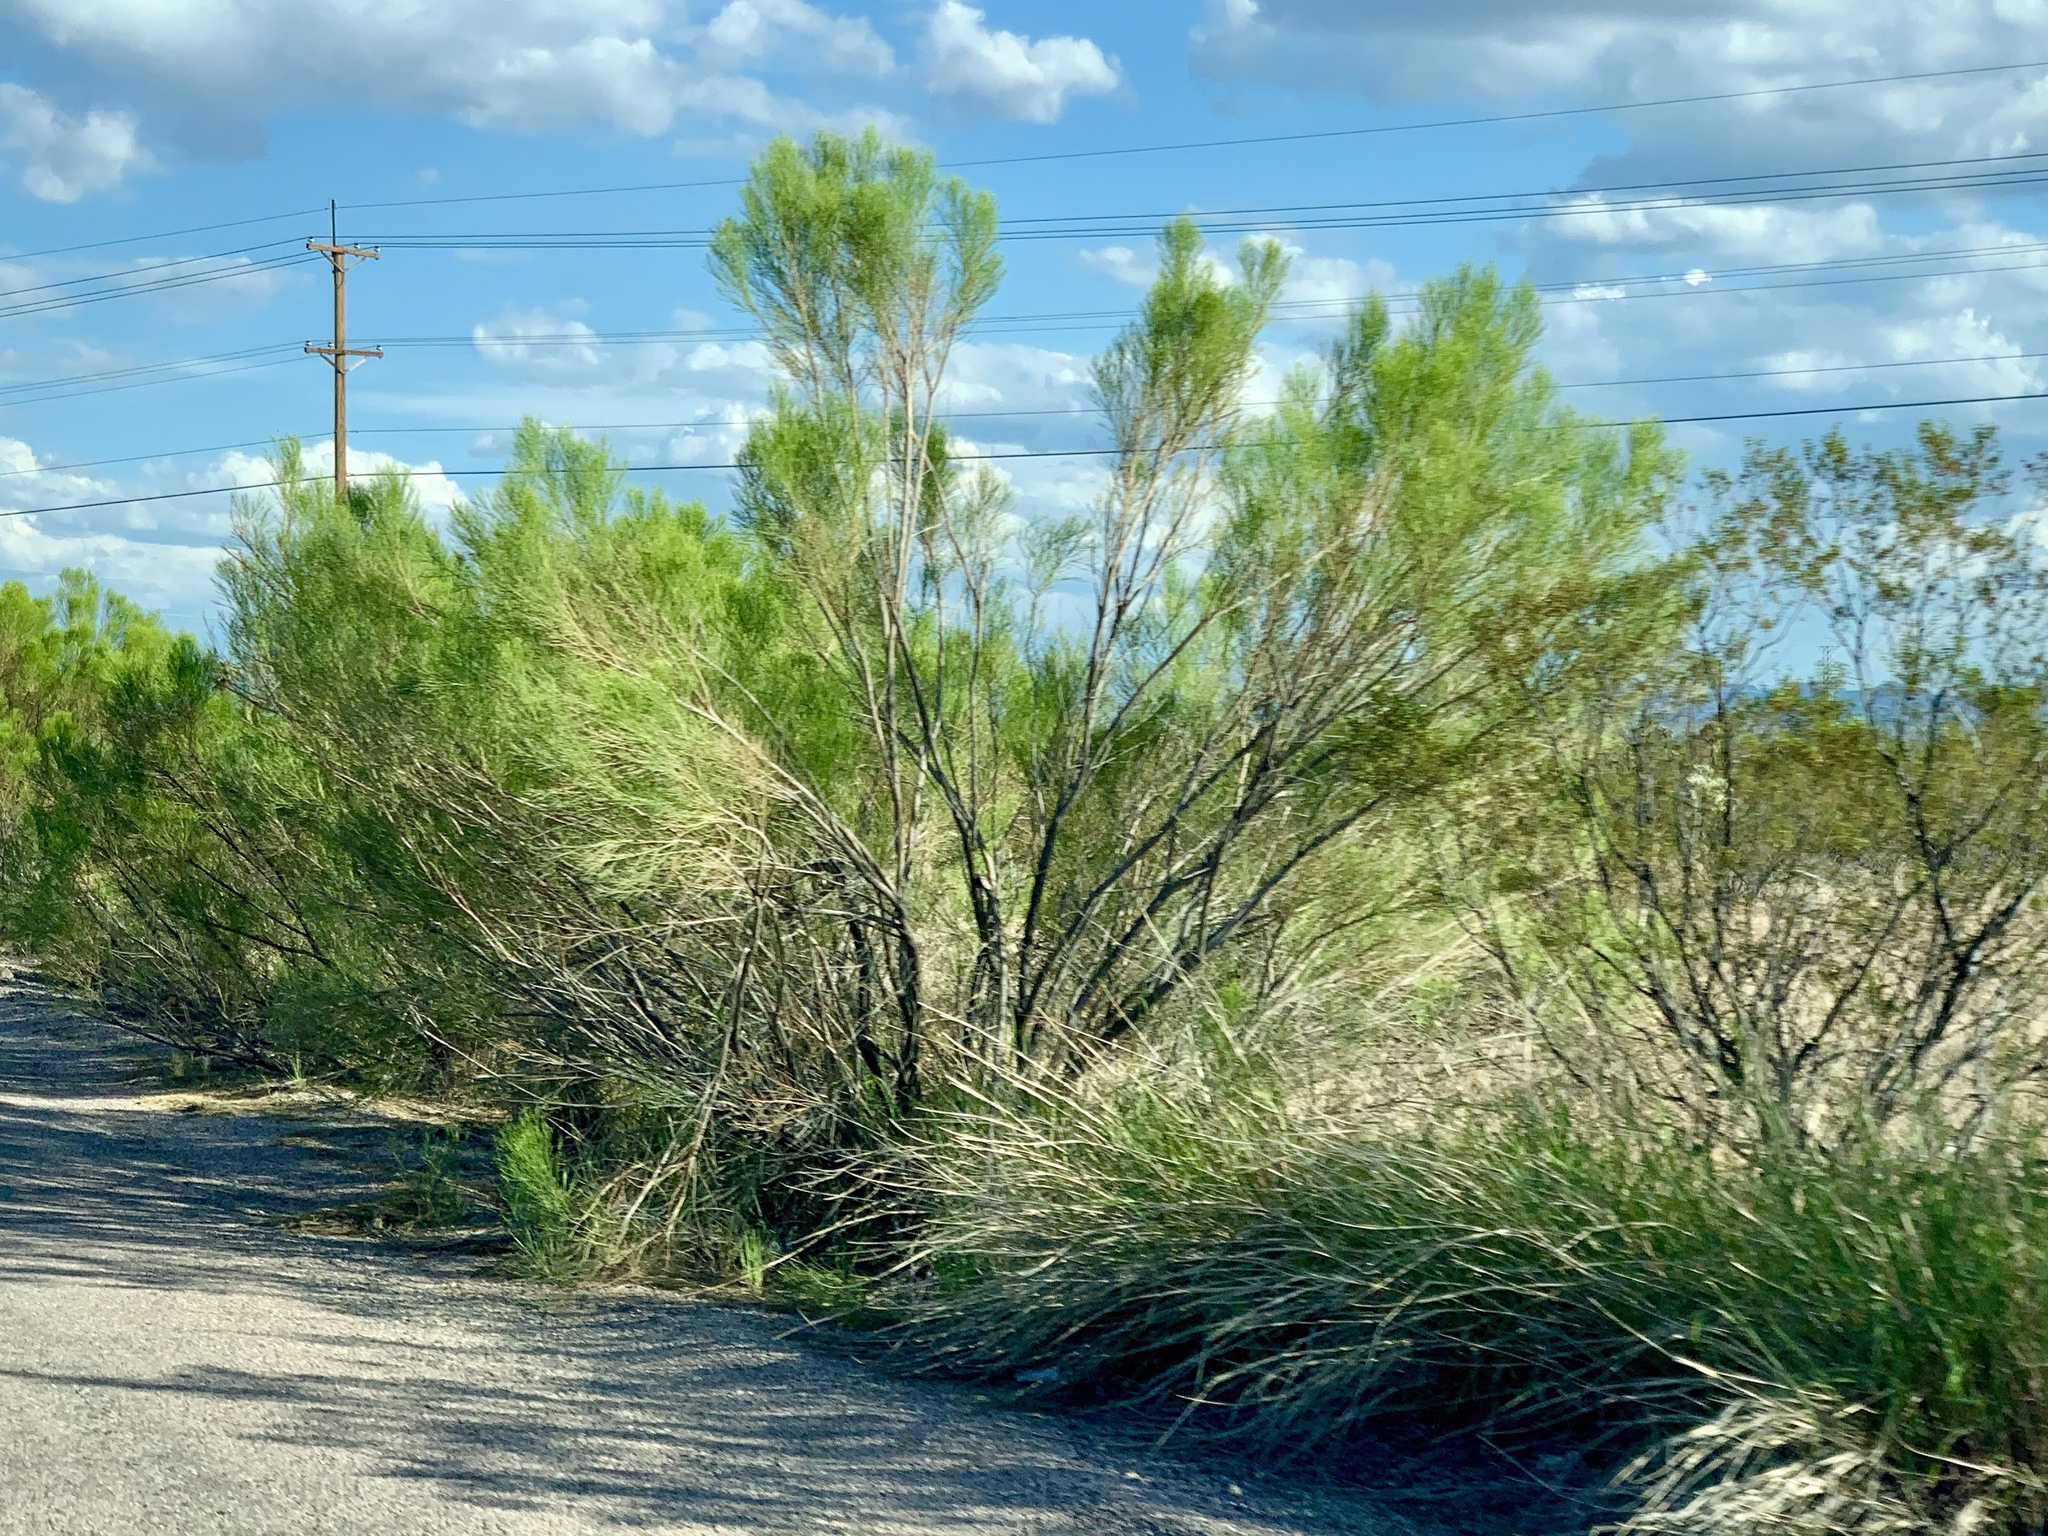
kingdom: Plantae
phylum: Tracheophyta
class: Magnoliopsida
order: Asterales
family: Asteraceae
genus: Baccharis
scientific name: Baccharis sarothroides
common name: Desert-broom
